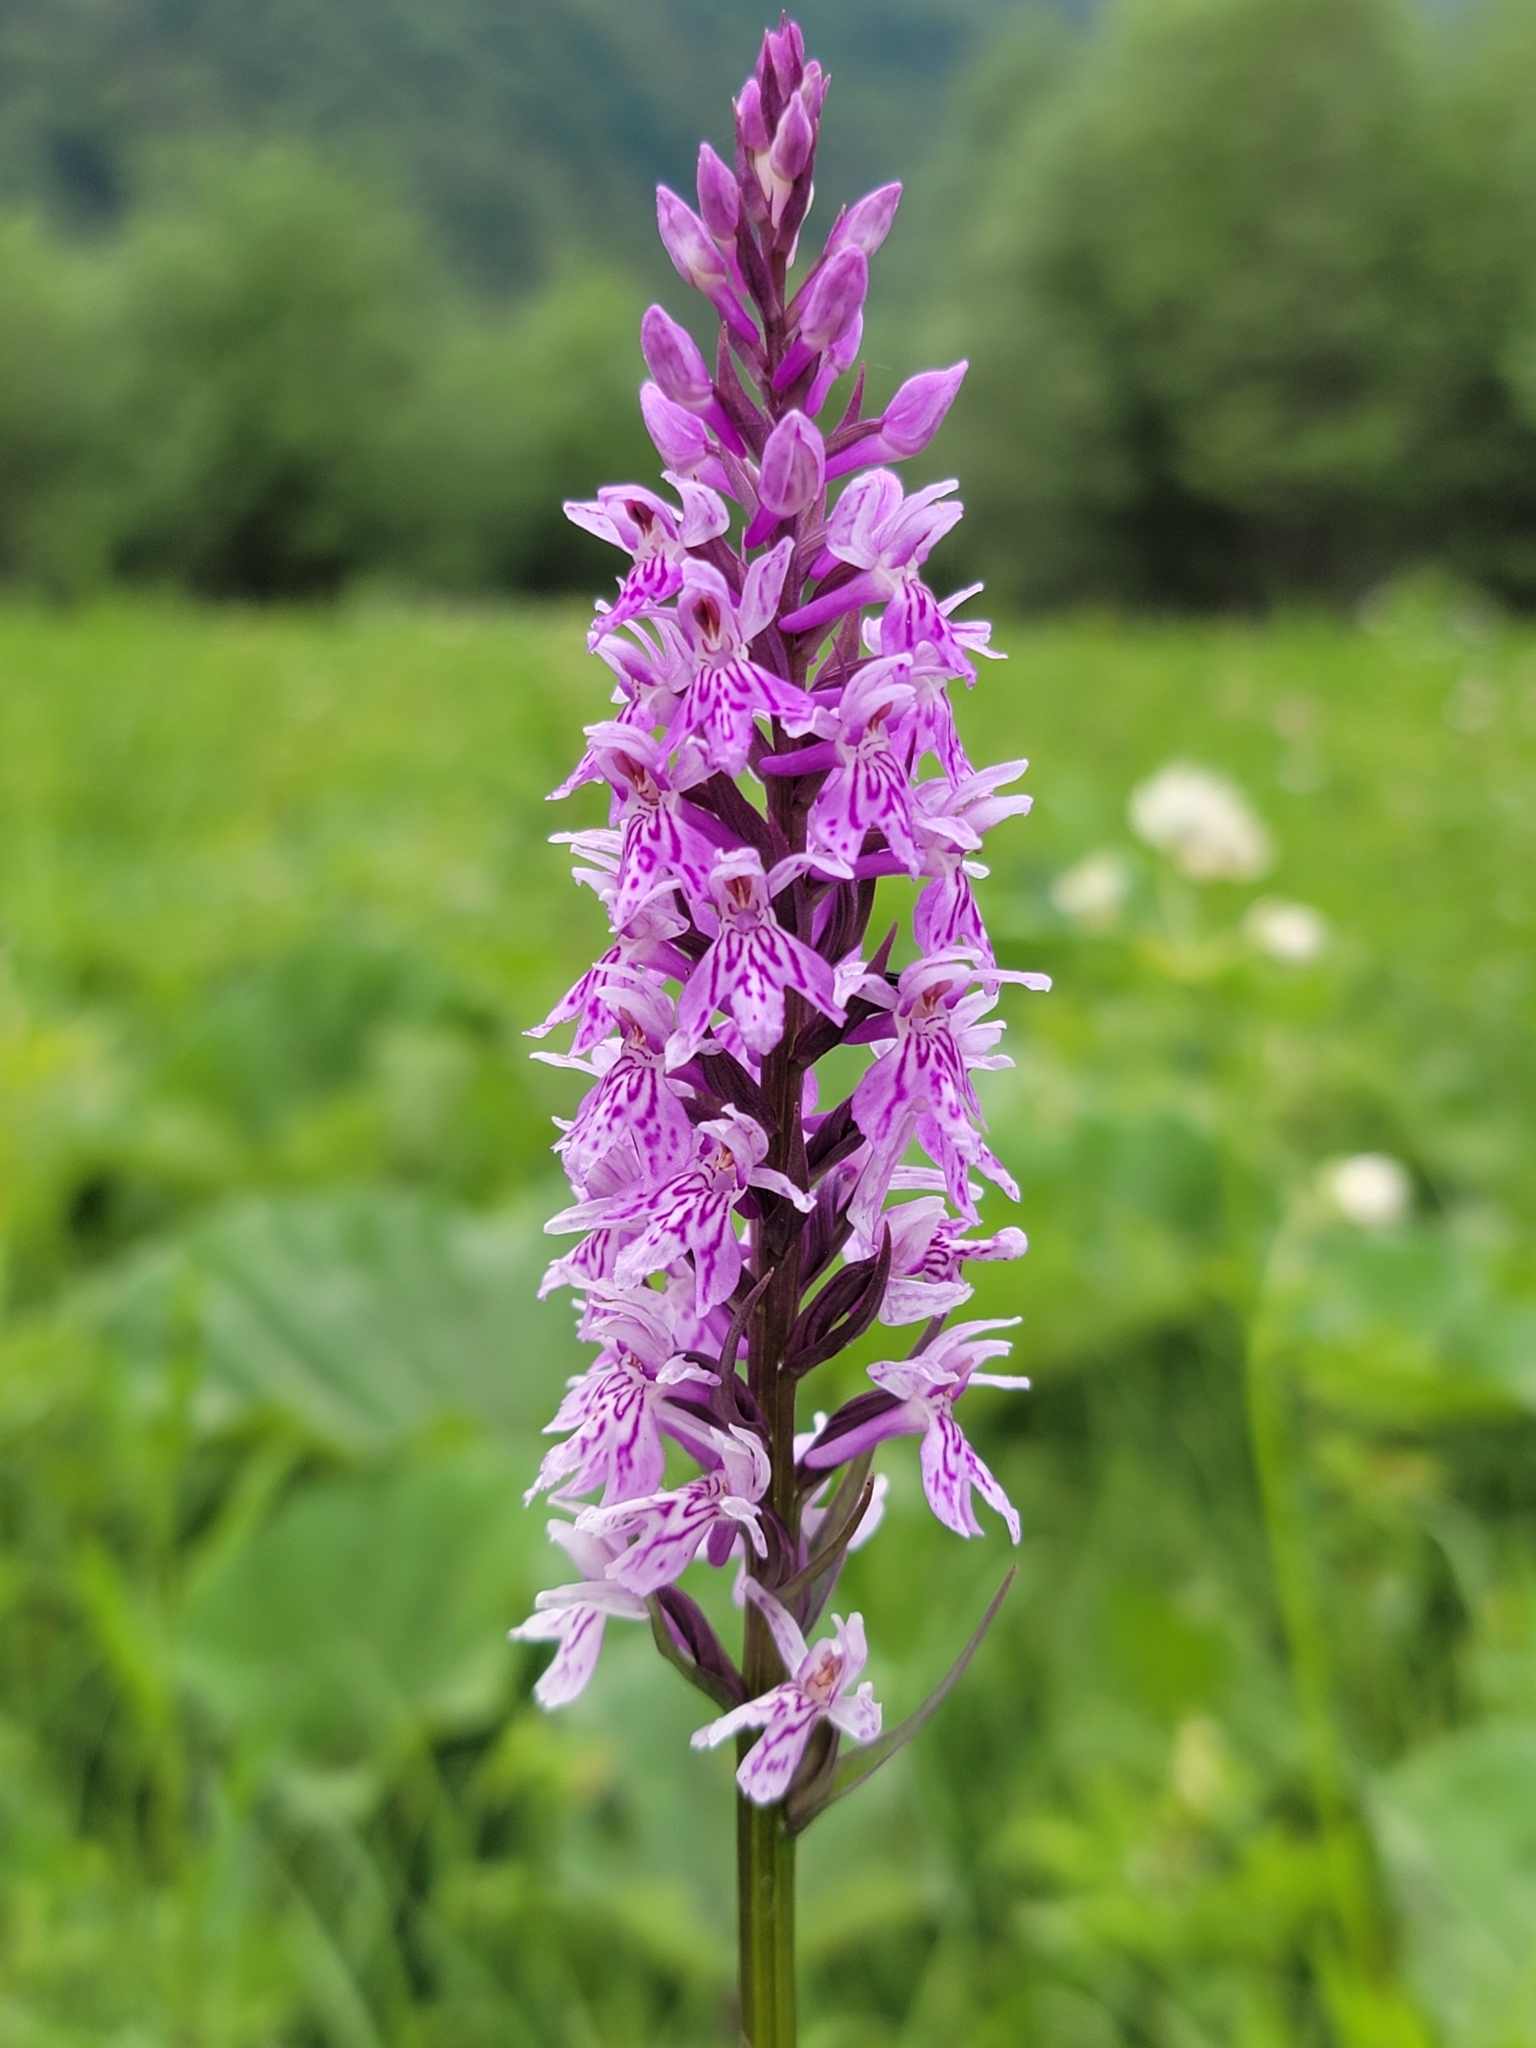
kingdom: Plantae
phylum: Tracheophyta
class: Liliopsida
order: Asparagales
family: Orchidaceae
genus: Dactylorhiza
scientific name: Dactylorhiza maculata
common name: Heath spotted-orchid
